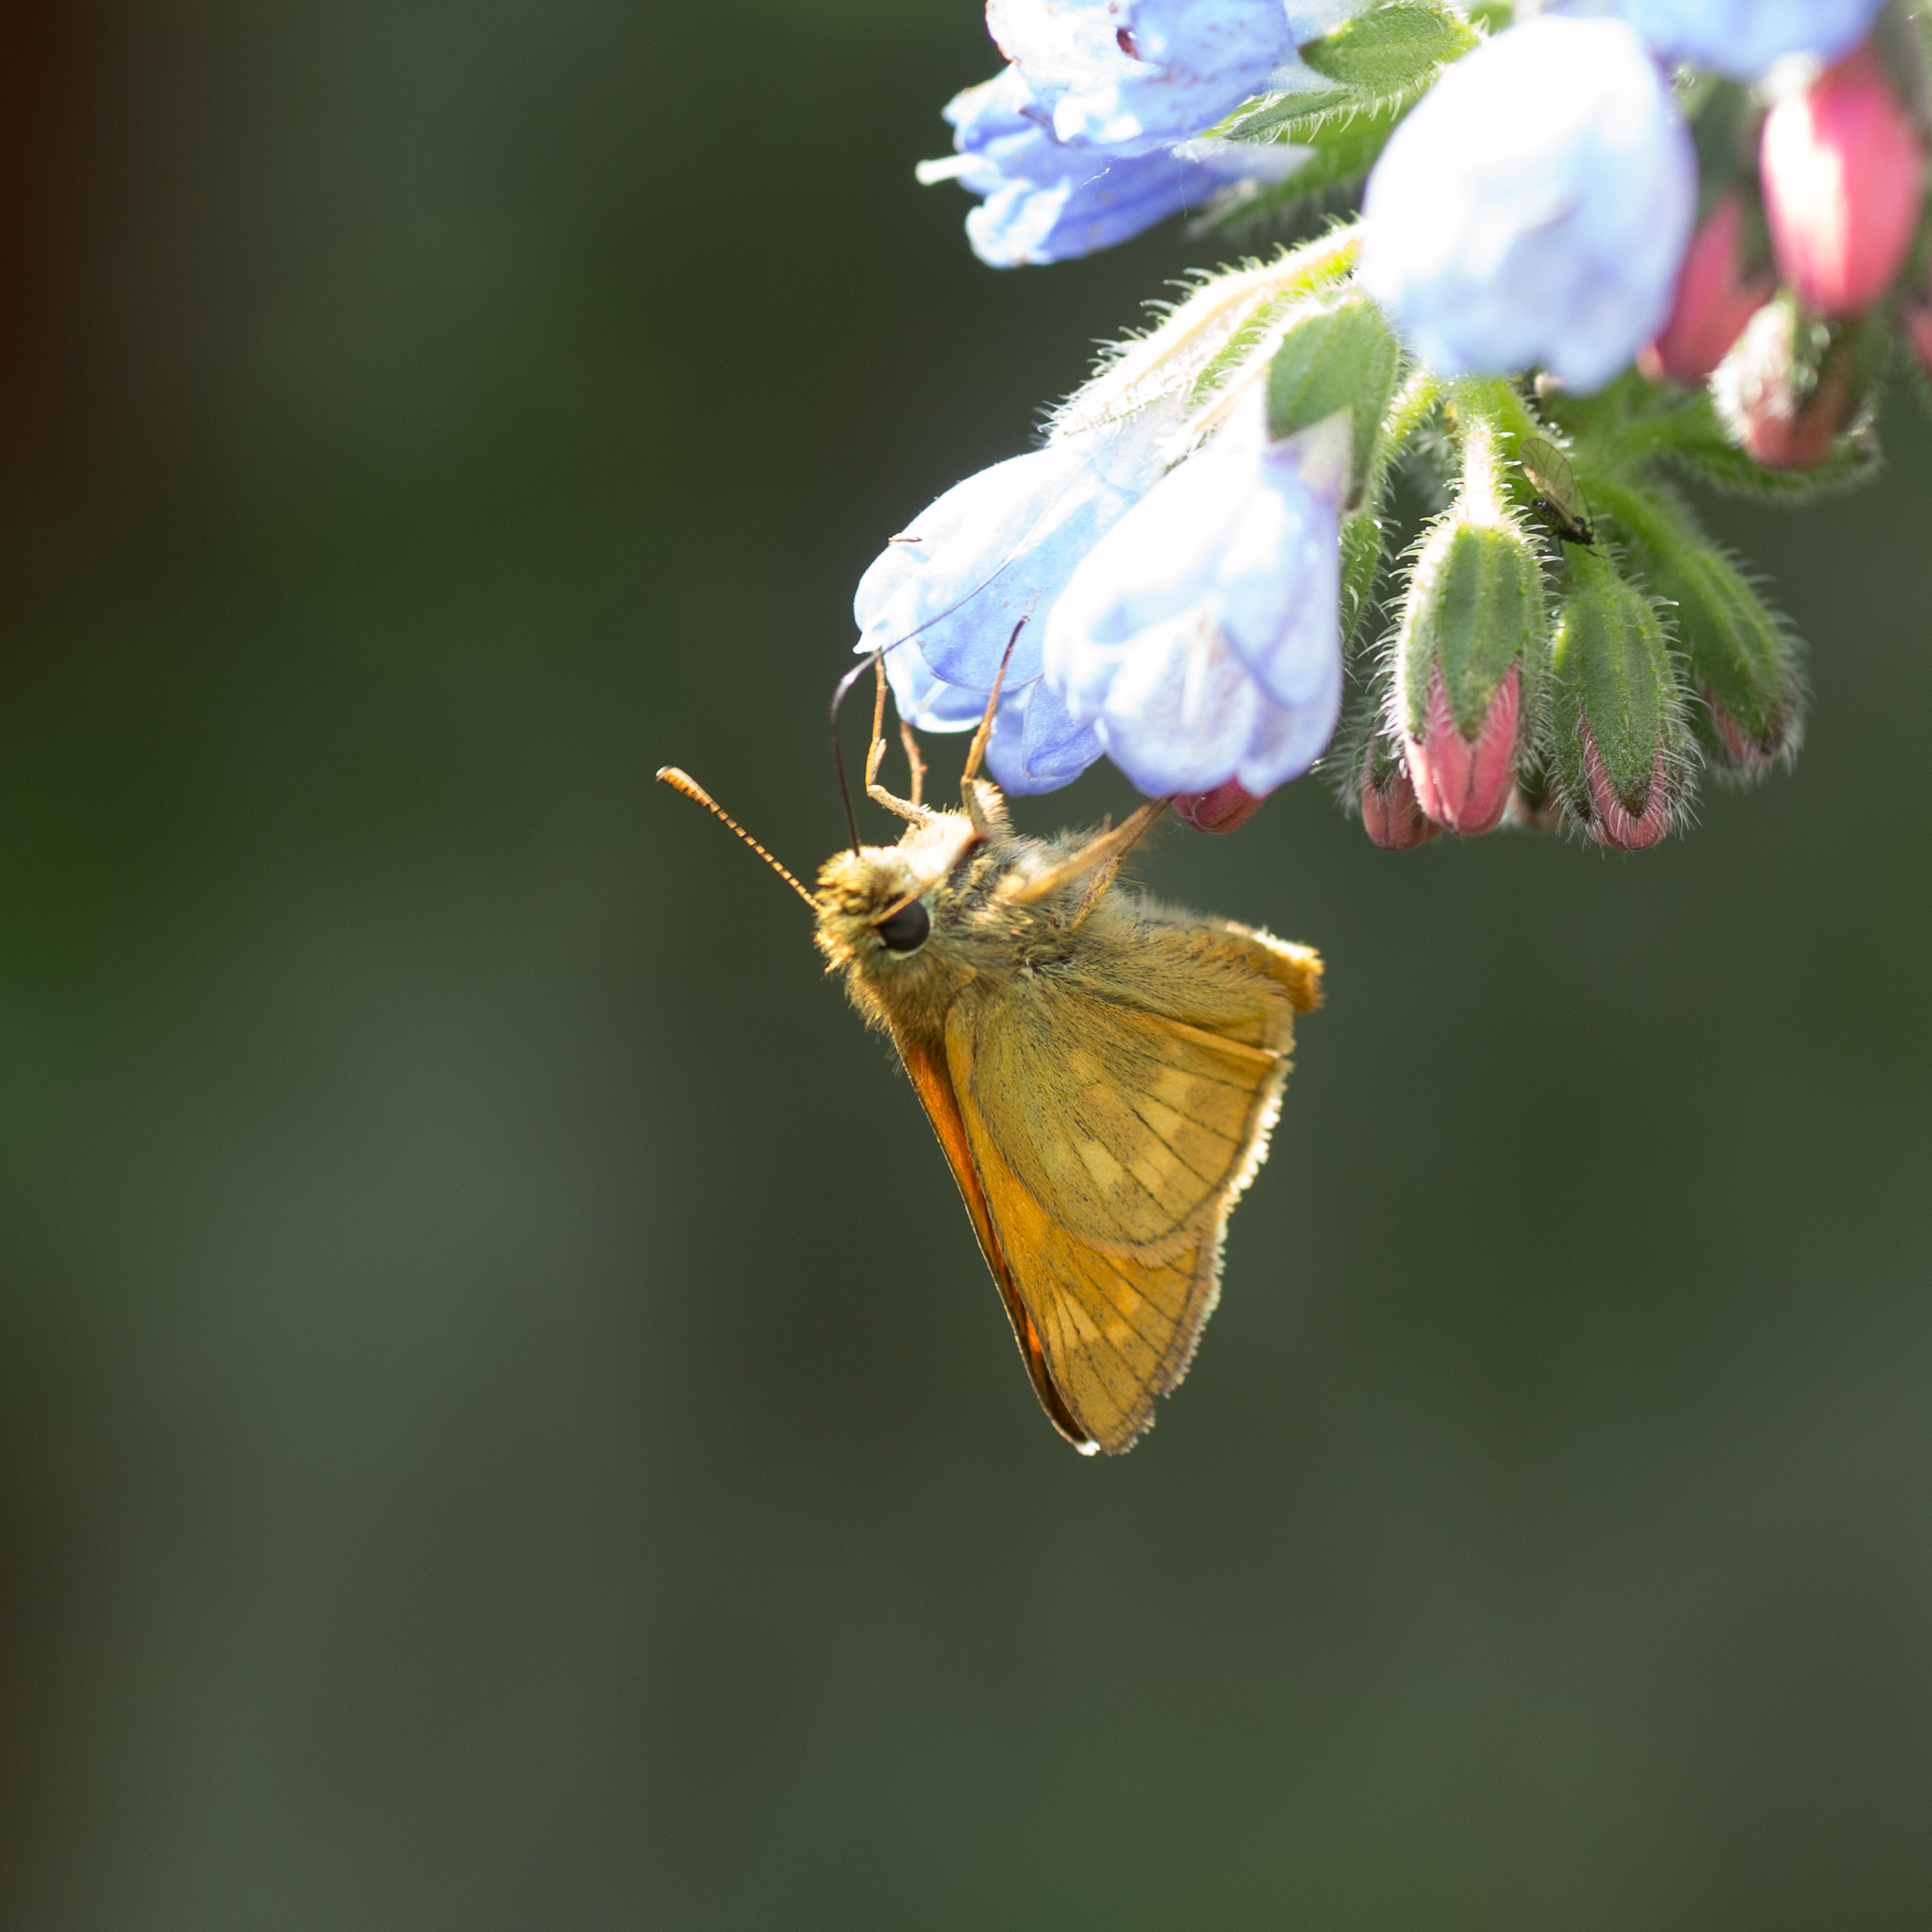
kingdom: Animalia
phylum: Arthropoda
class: Insecta
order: Lepidoptera
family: Hesperiidae
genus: Ochlodes
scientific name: Ochlodes venata
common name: Large skipper
